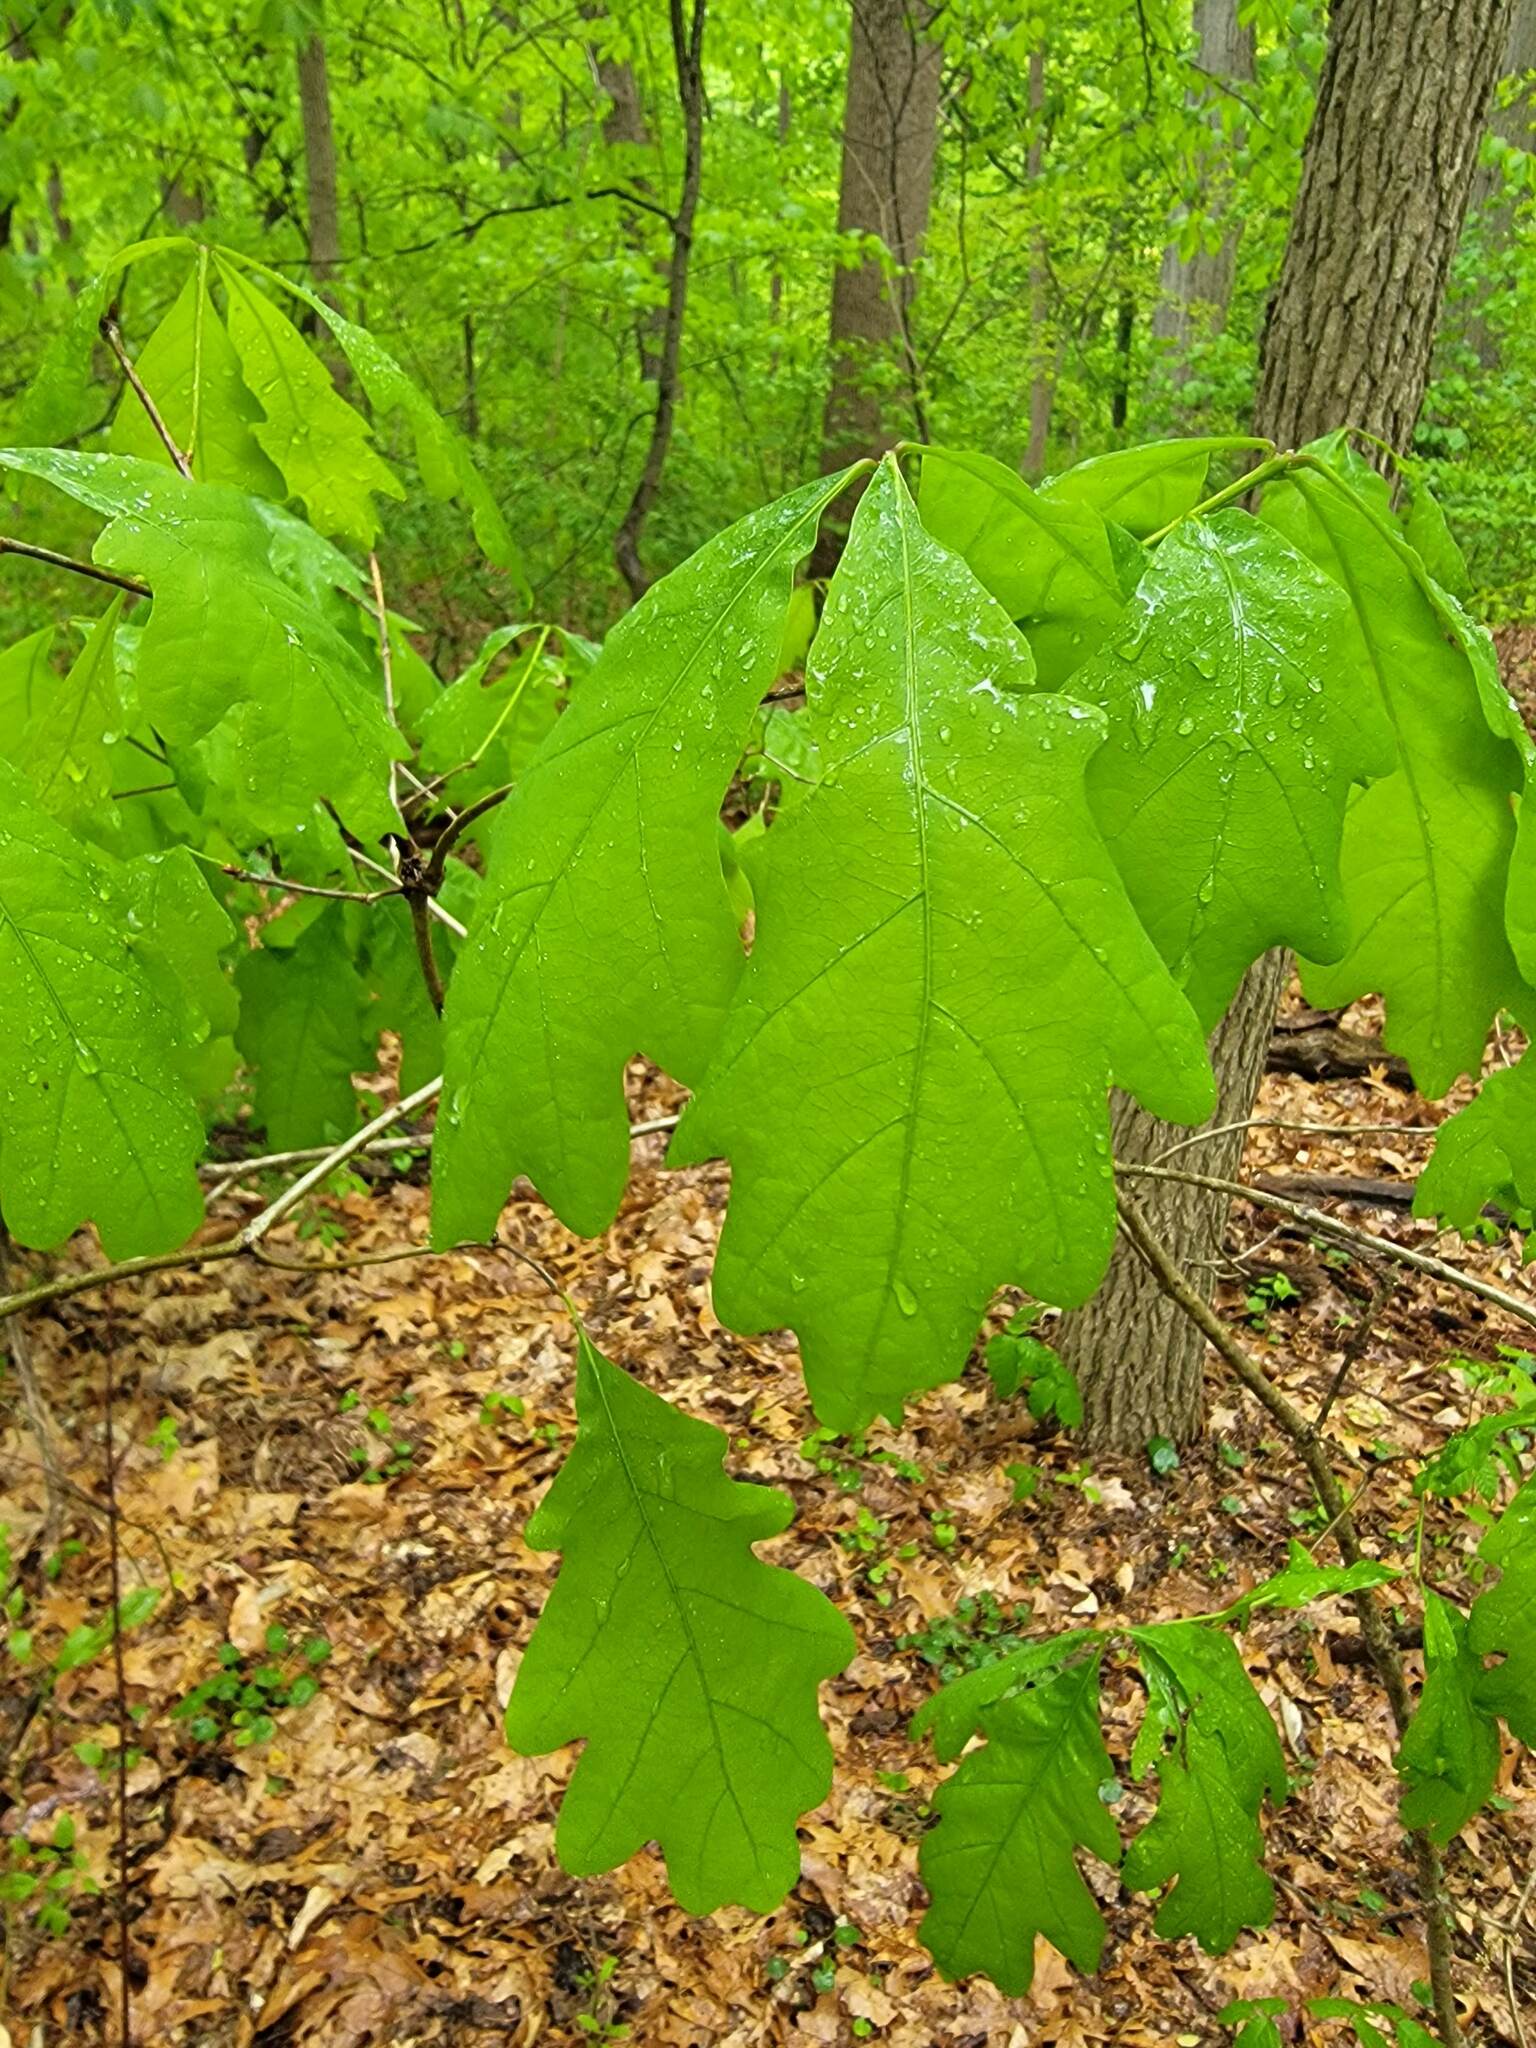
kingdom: Plantae
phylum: Tracheophyta
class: Magnoliopsida
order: Fagales
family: Fagaceae
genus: Quercus
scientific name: Quercus alba
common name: White oak
